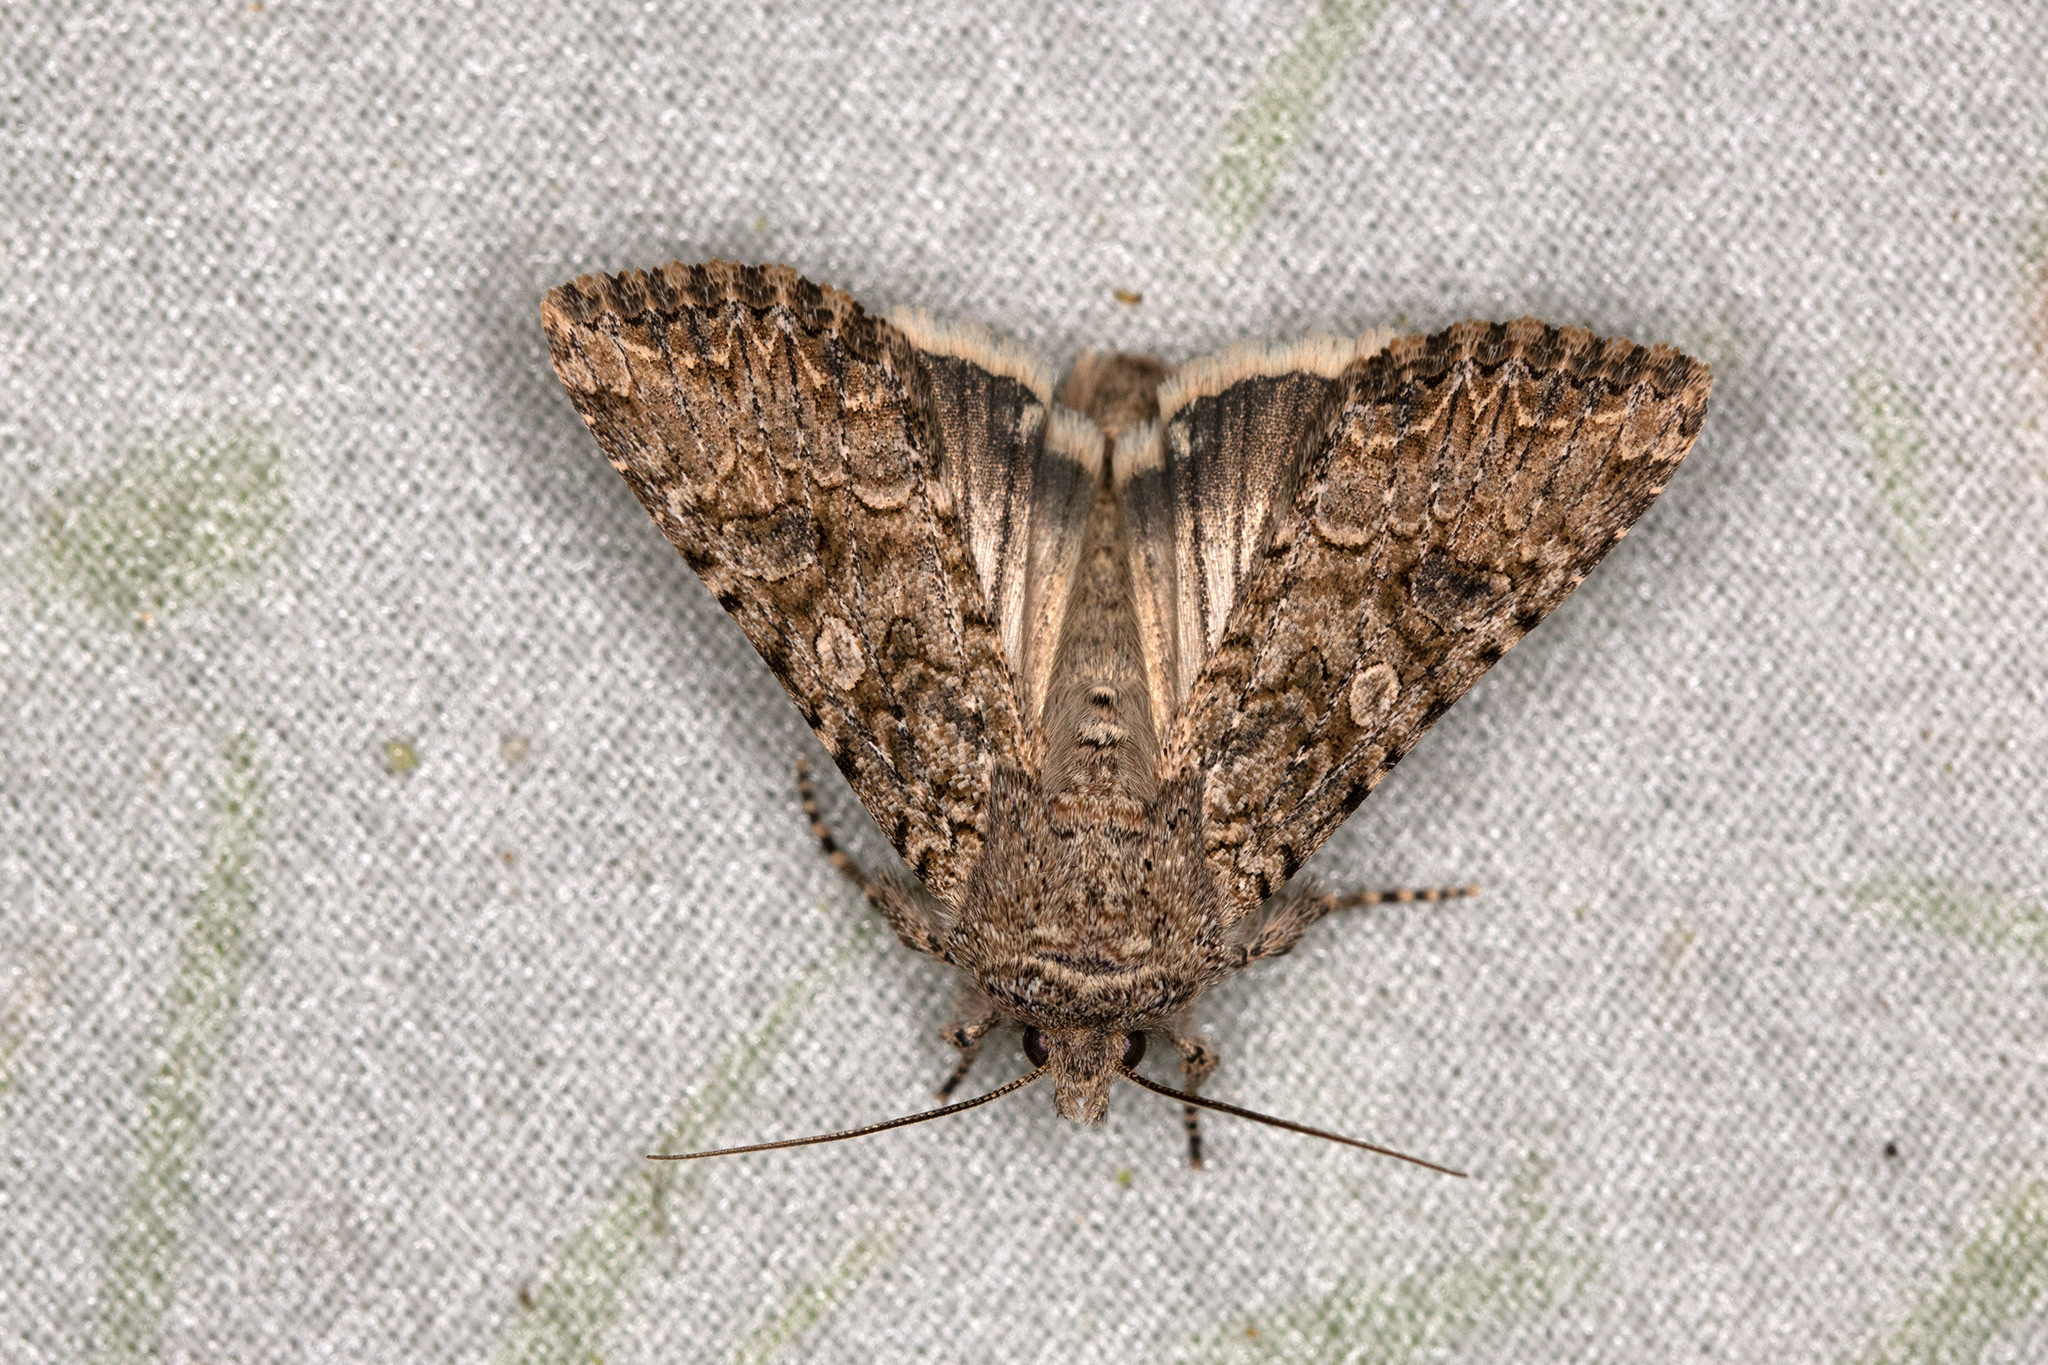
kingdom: Animalia
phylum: Arthropoda
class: Insecta
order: Lepidoptera
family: Noctuidae
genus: Anarta
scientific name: Anarta trifolii
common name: Clover cutworm moth
